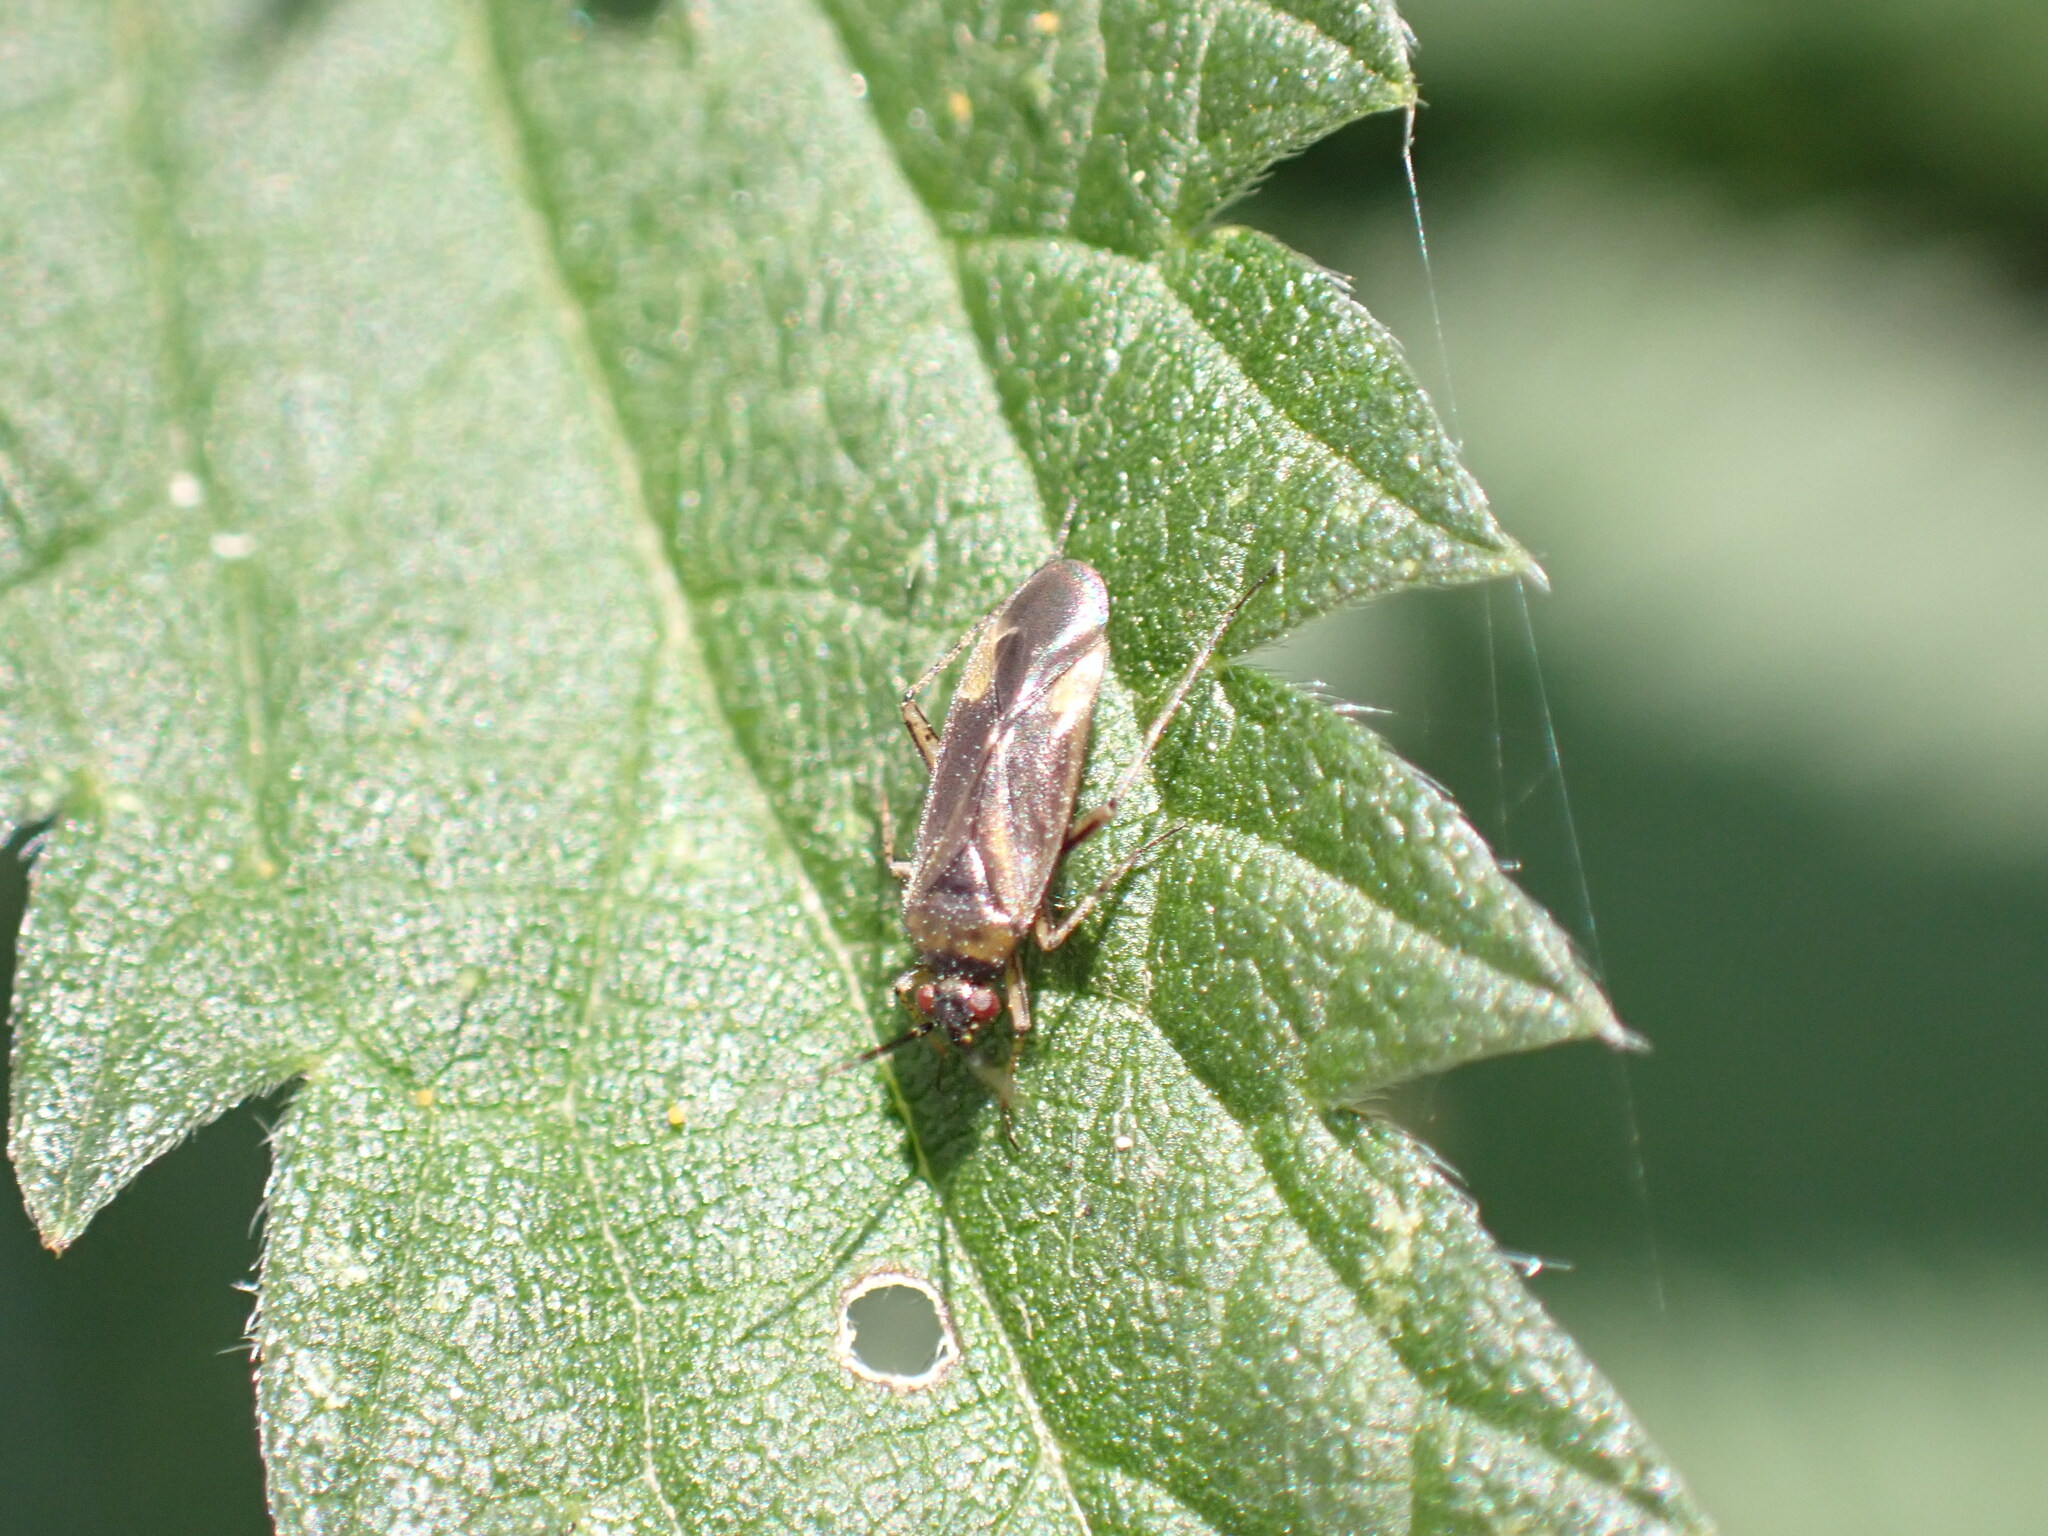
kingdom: Animalia
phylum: Arthropoda
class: Insecta
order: Hemiptera
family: Miridae
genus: Plagiognathus
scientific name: Plagiognathus arbustorum
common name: Plant bug
